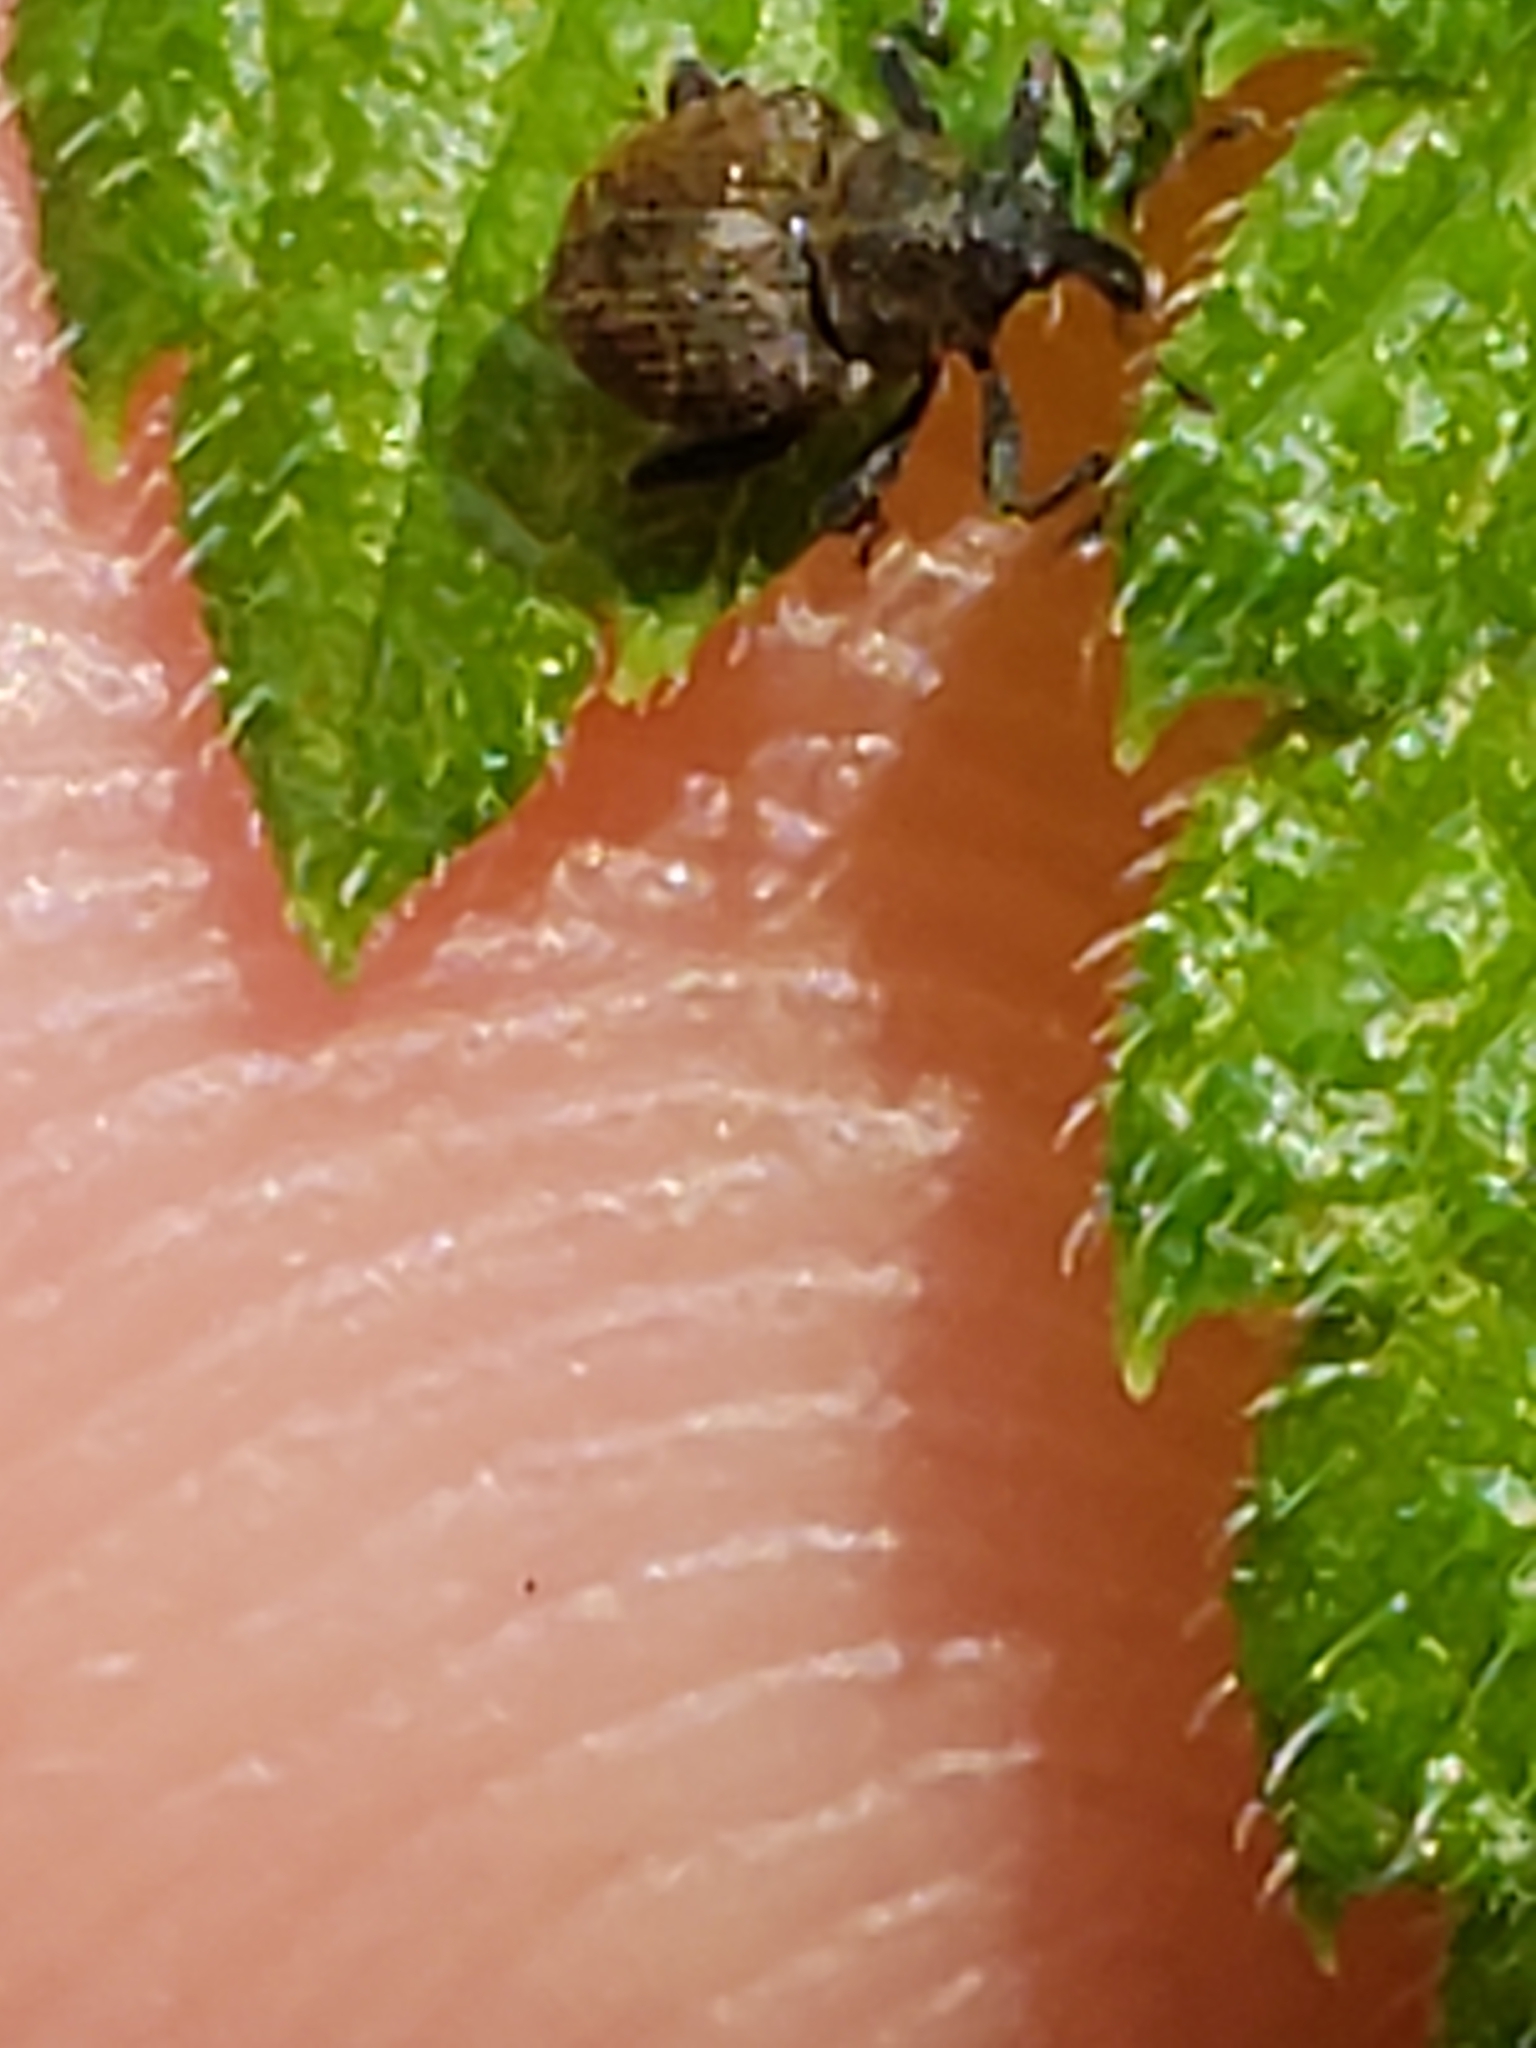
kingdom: Animalia
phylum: Arthropoda
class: Insecta
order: Coleoptera
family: Curculionidae
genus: Rhinoncomimus
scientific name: Rhinoncomimus latipes
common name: Chinese weevil
